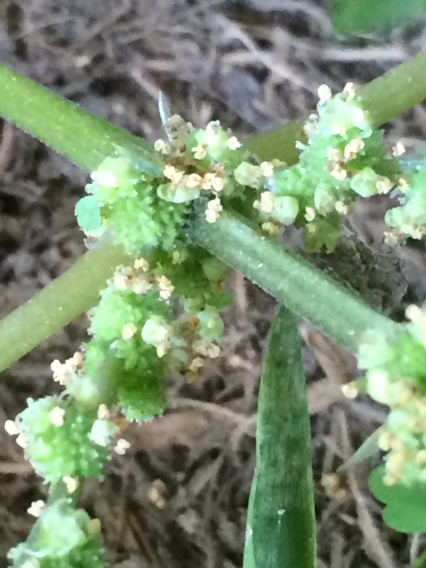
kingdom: Plantae
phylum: Tracheophyta
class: Magnoliopsida
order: Rosales
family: Urticaceae
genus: Boehmeria
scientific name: Boehmeria cylindrica
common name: Bog-hemp
